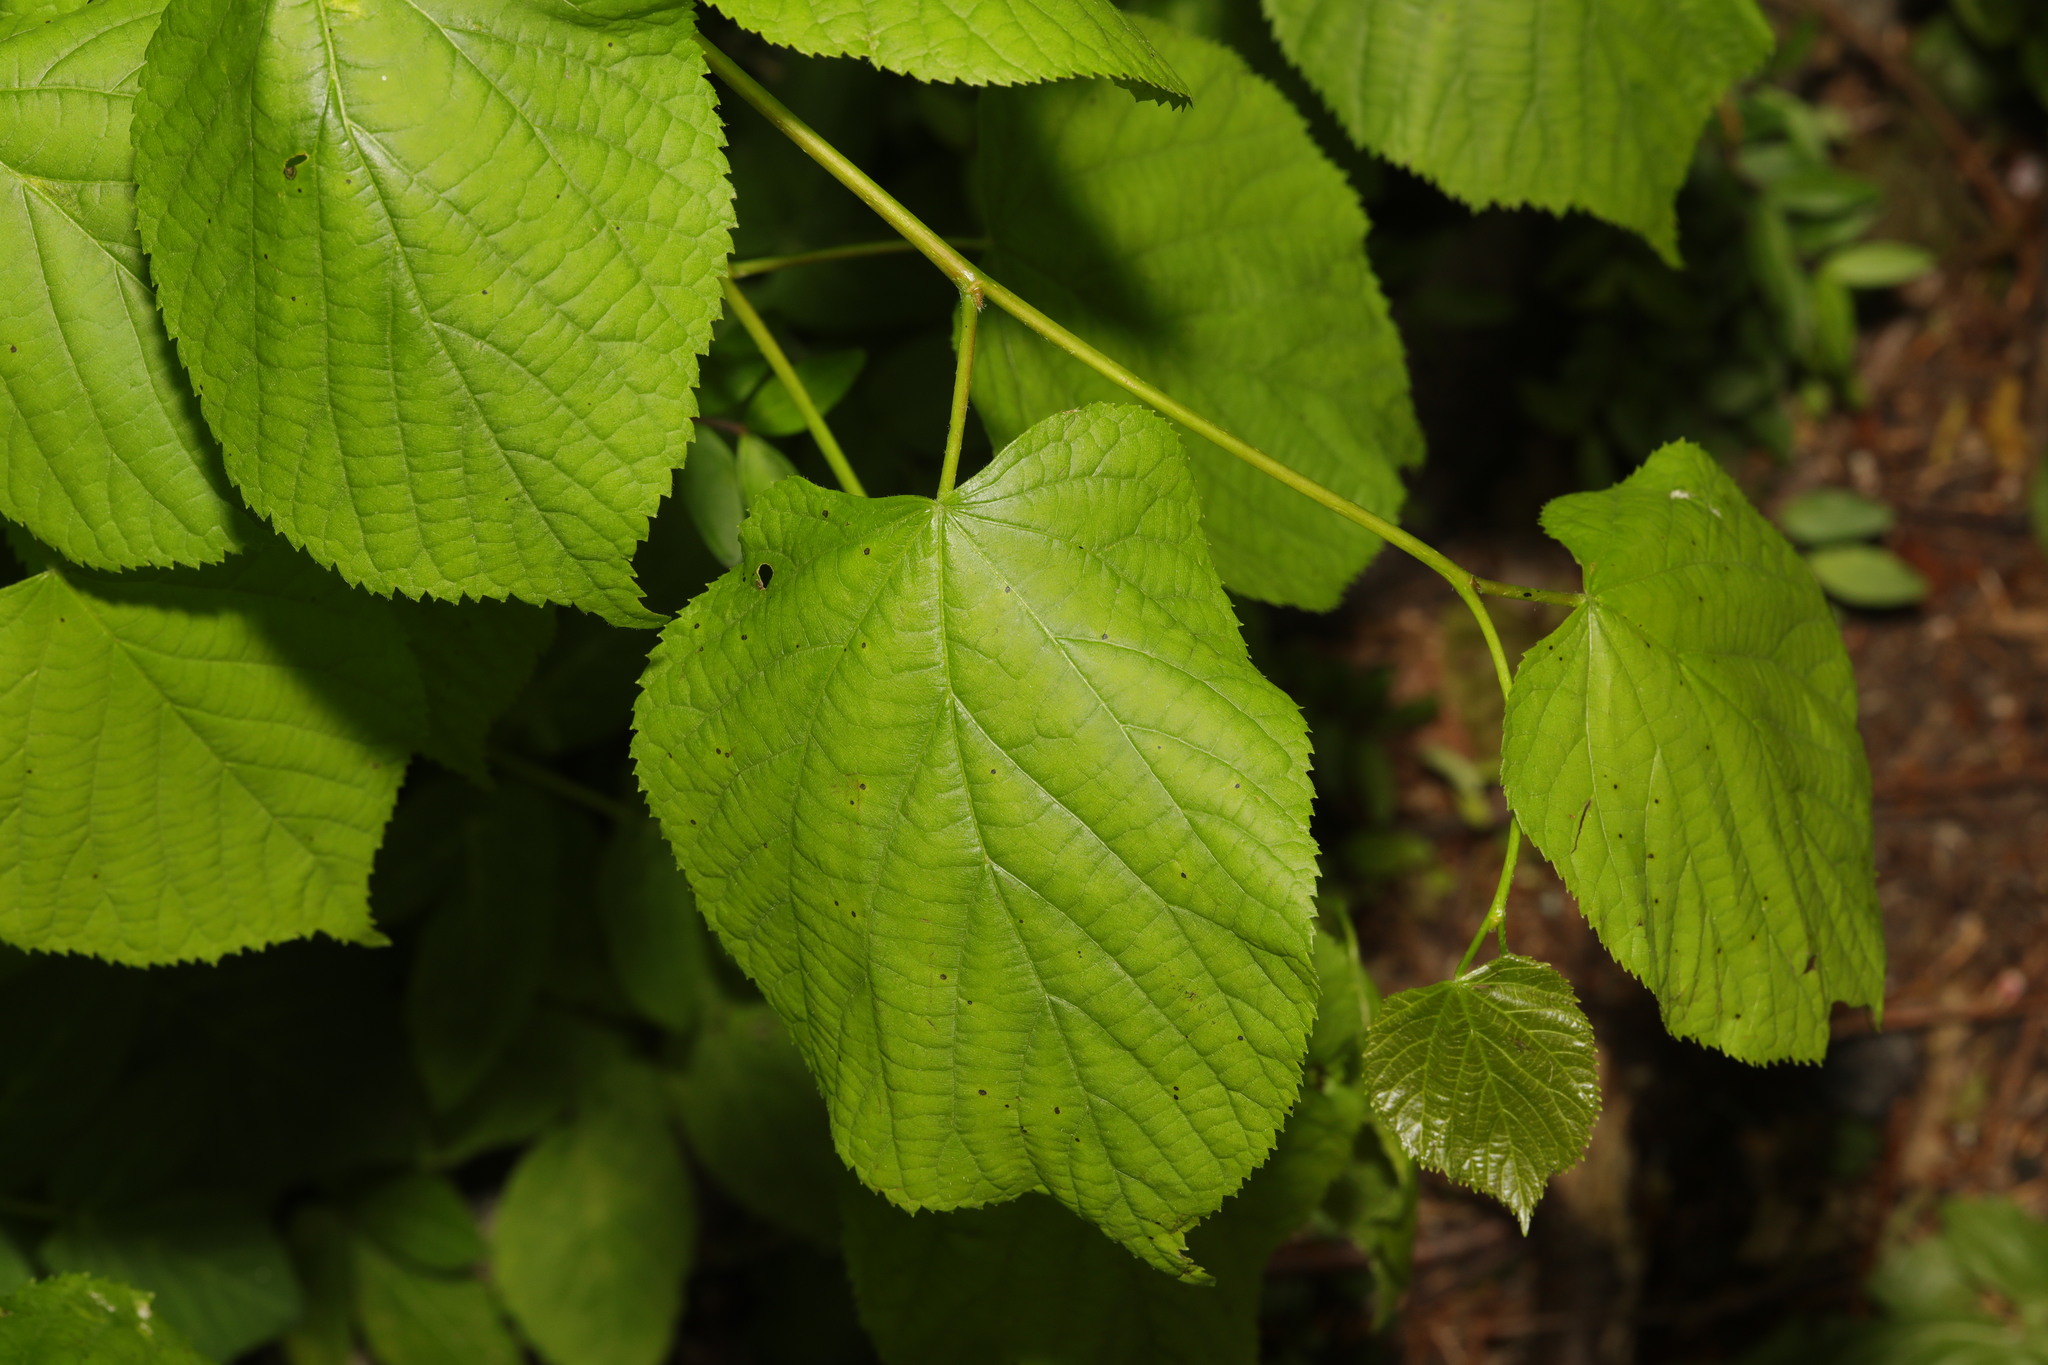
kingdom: Plantae
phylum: Tracheophyta
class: Magnoliopsida
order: Malvales
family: Malvaceae
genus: Tilia
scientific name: Tilia europaea
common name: European linden
